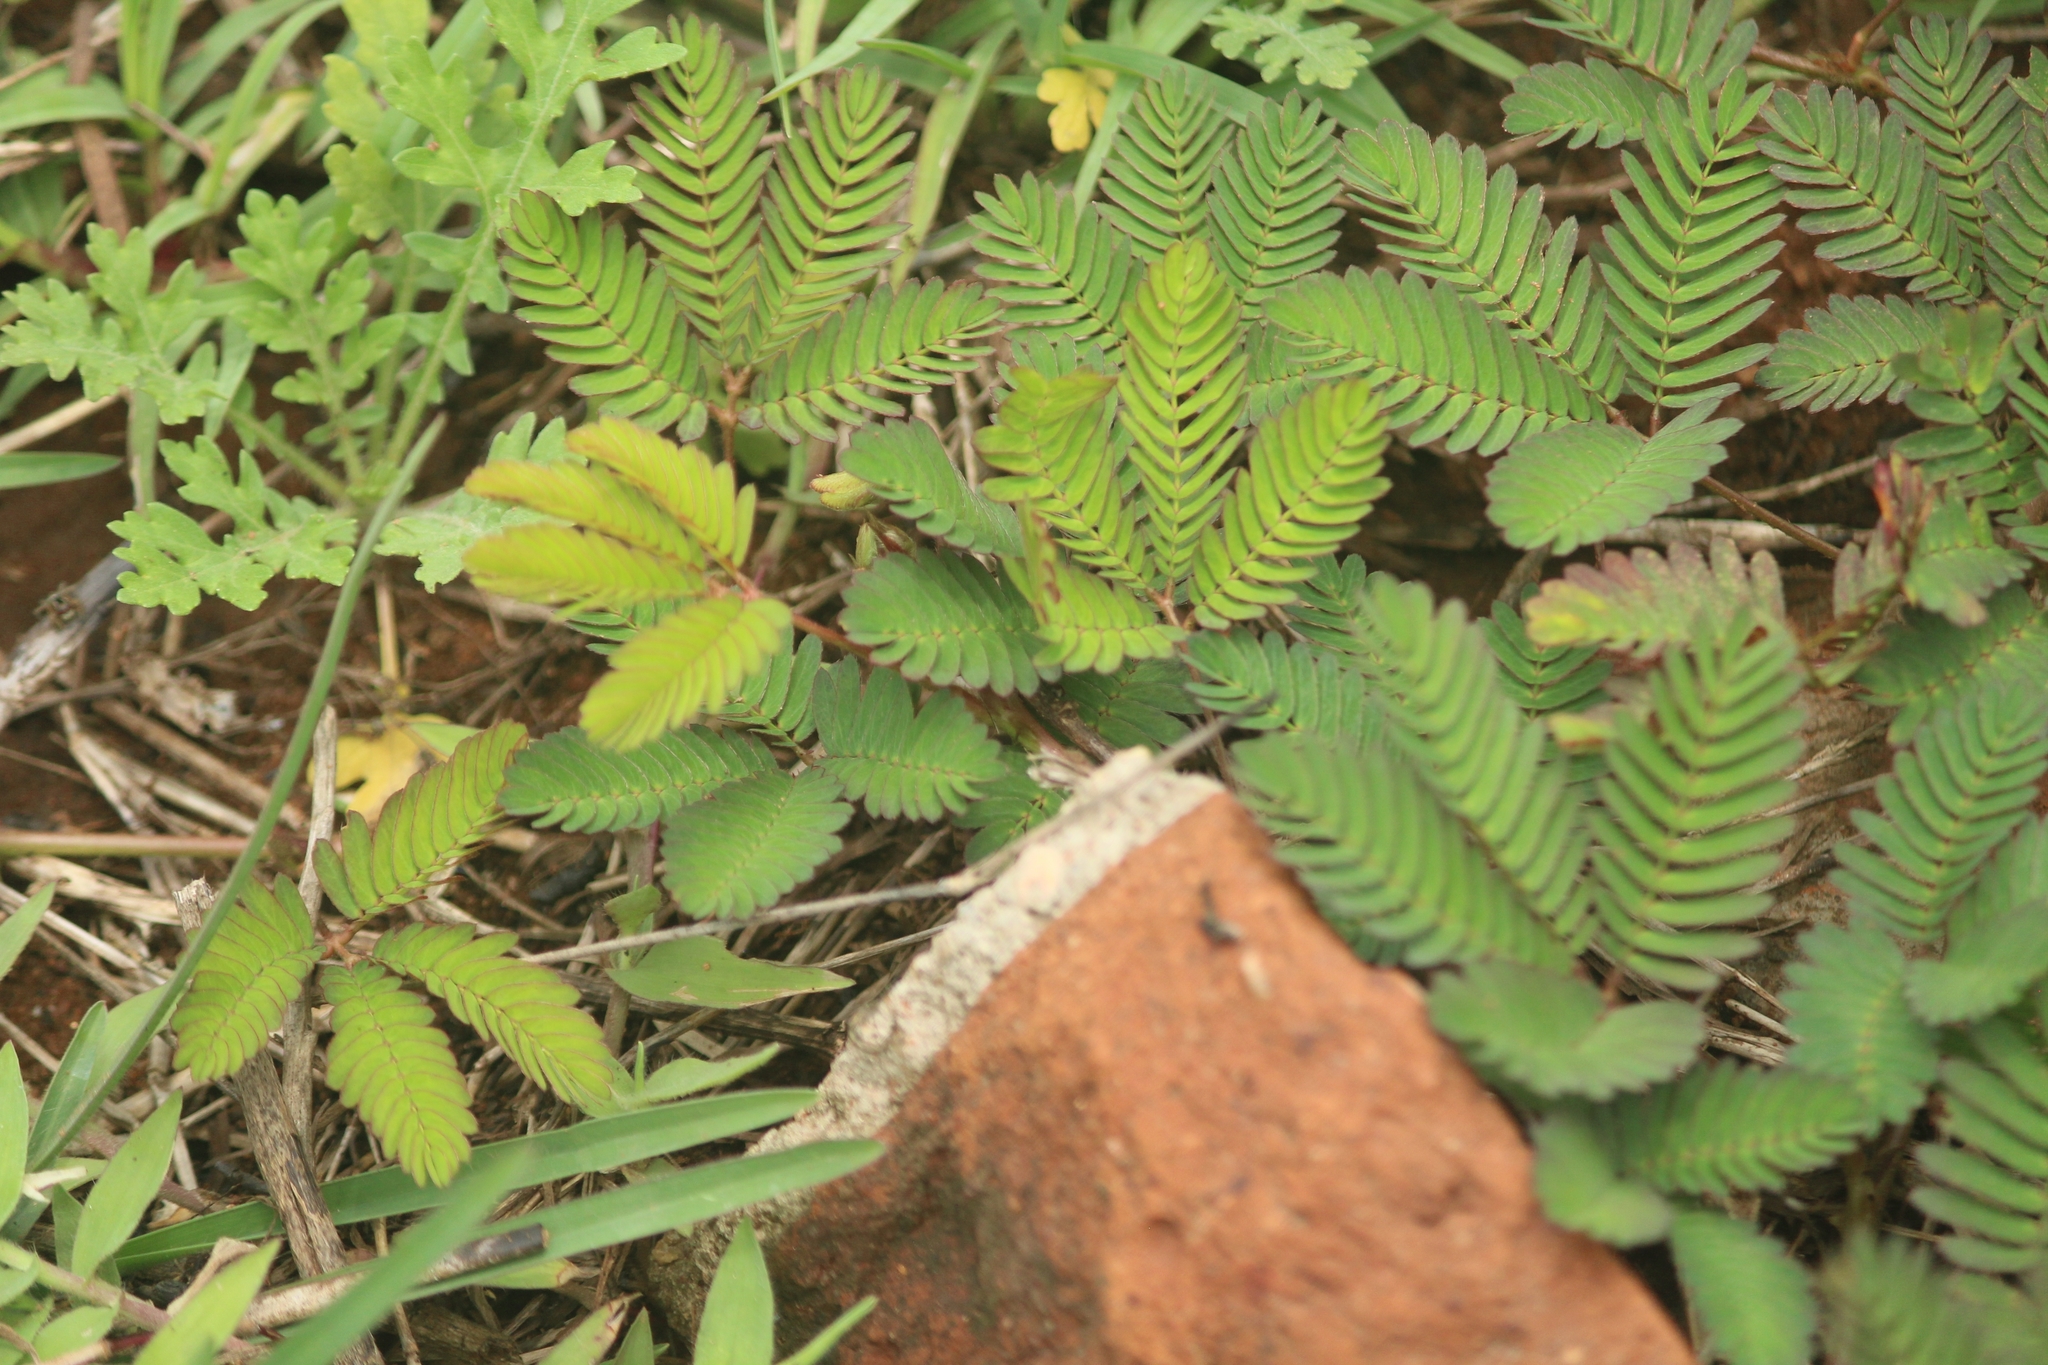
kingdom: Plantae
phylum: Tracheophyta
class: Magnoliopsida
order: Fabales
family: Fabaceae
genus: Mimosa
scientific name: Mimosa pudica
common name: Sensitive plant
